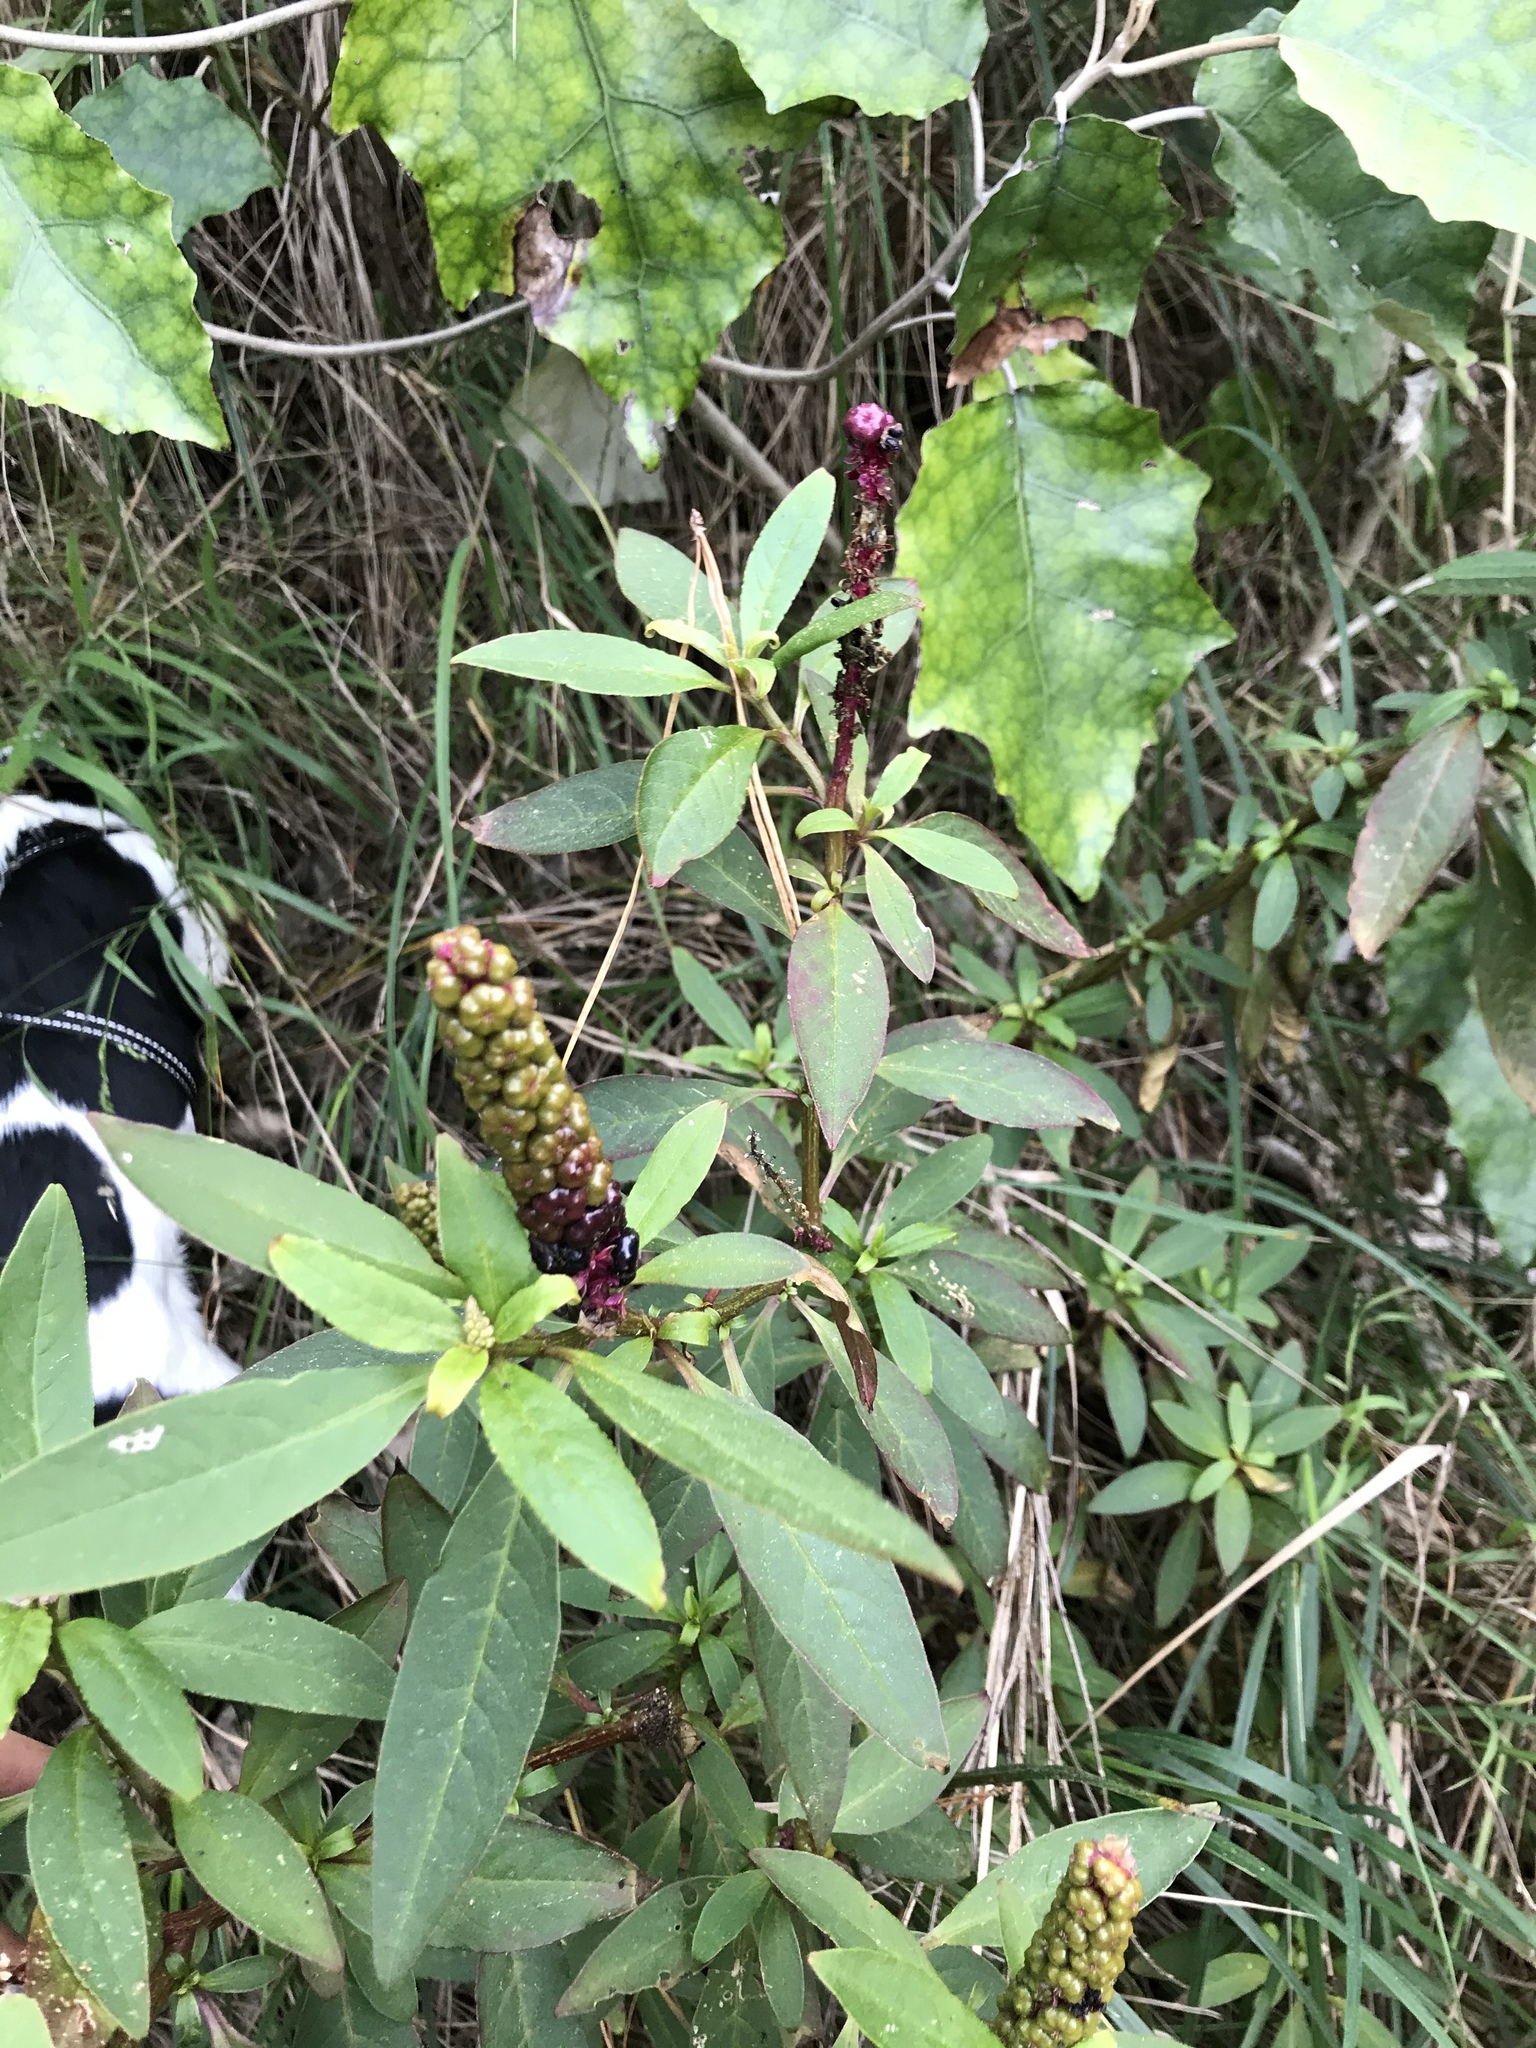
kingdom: Plantae
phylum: Tracheophyta
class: Magnoliopsida
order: Caryophyllales
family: Phytolaccaceae
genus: Phytolacca
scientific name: Phytolacca icosandra
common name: Button pokeweed
